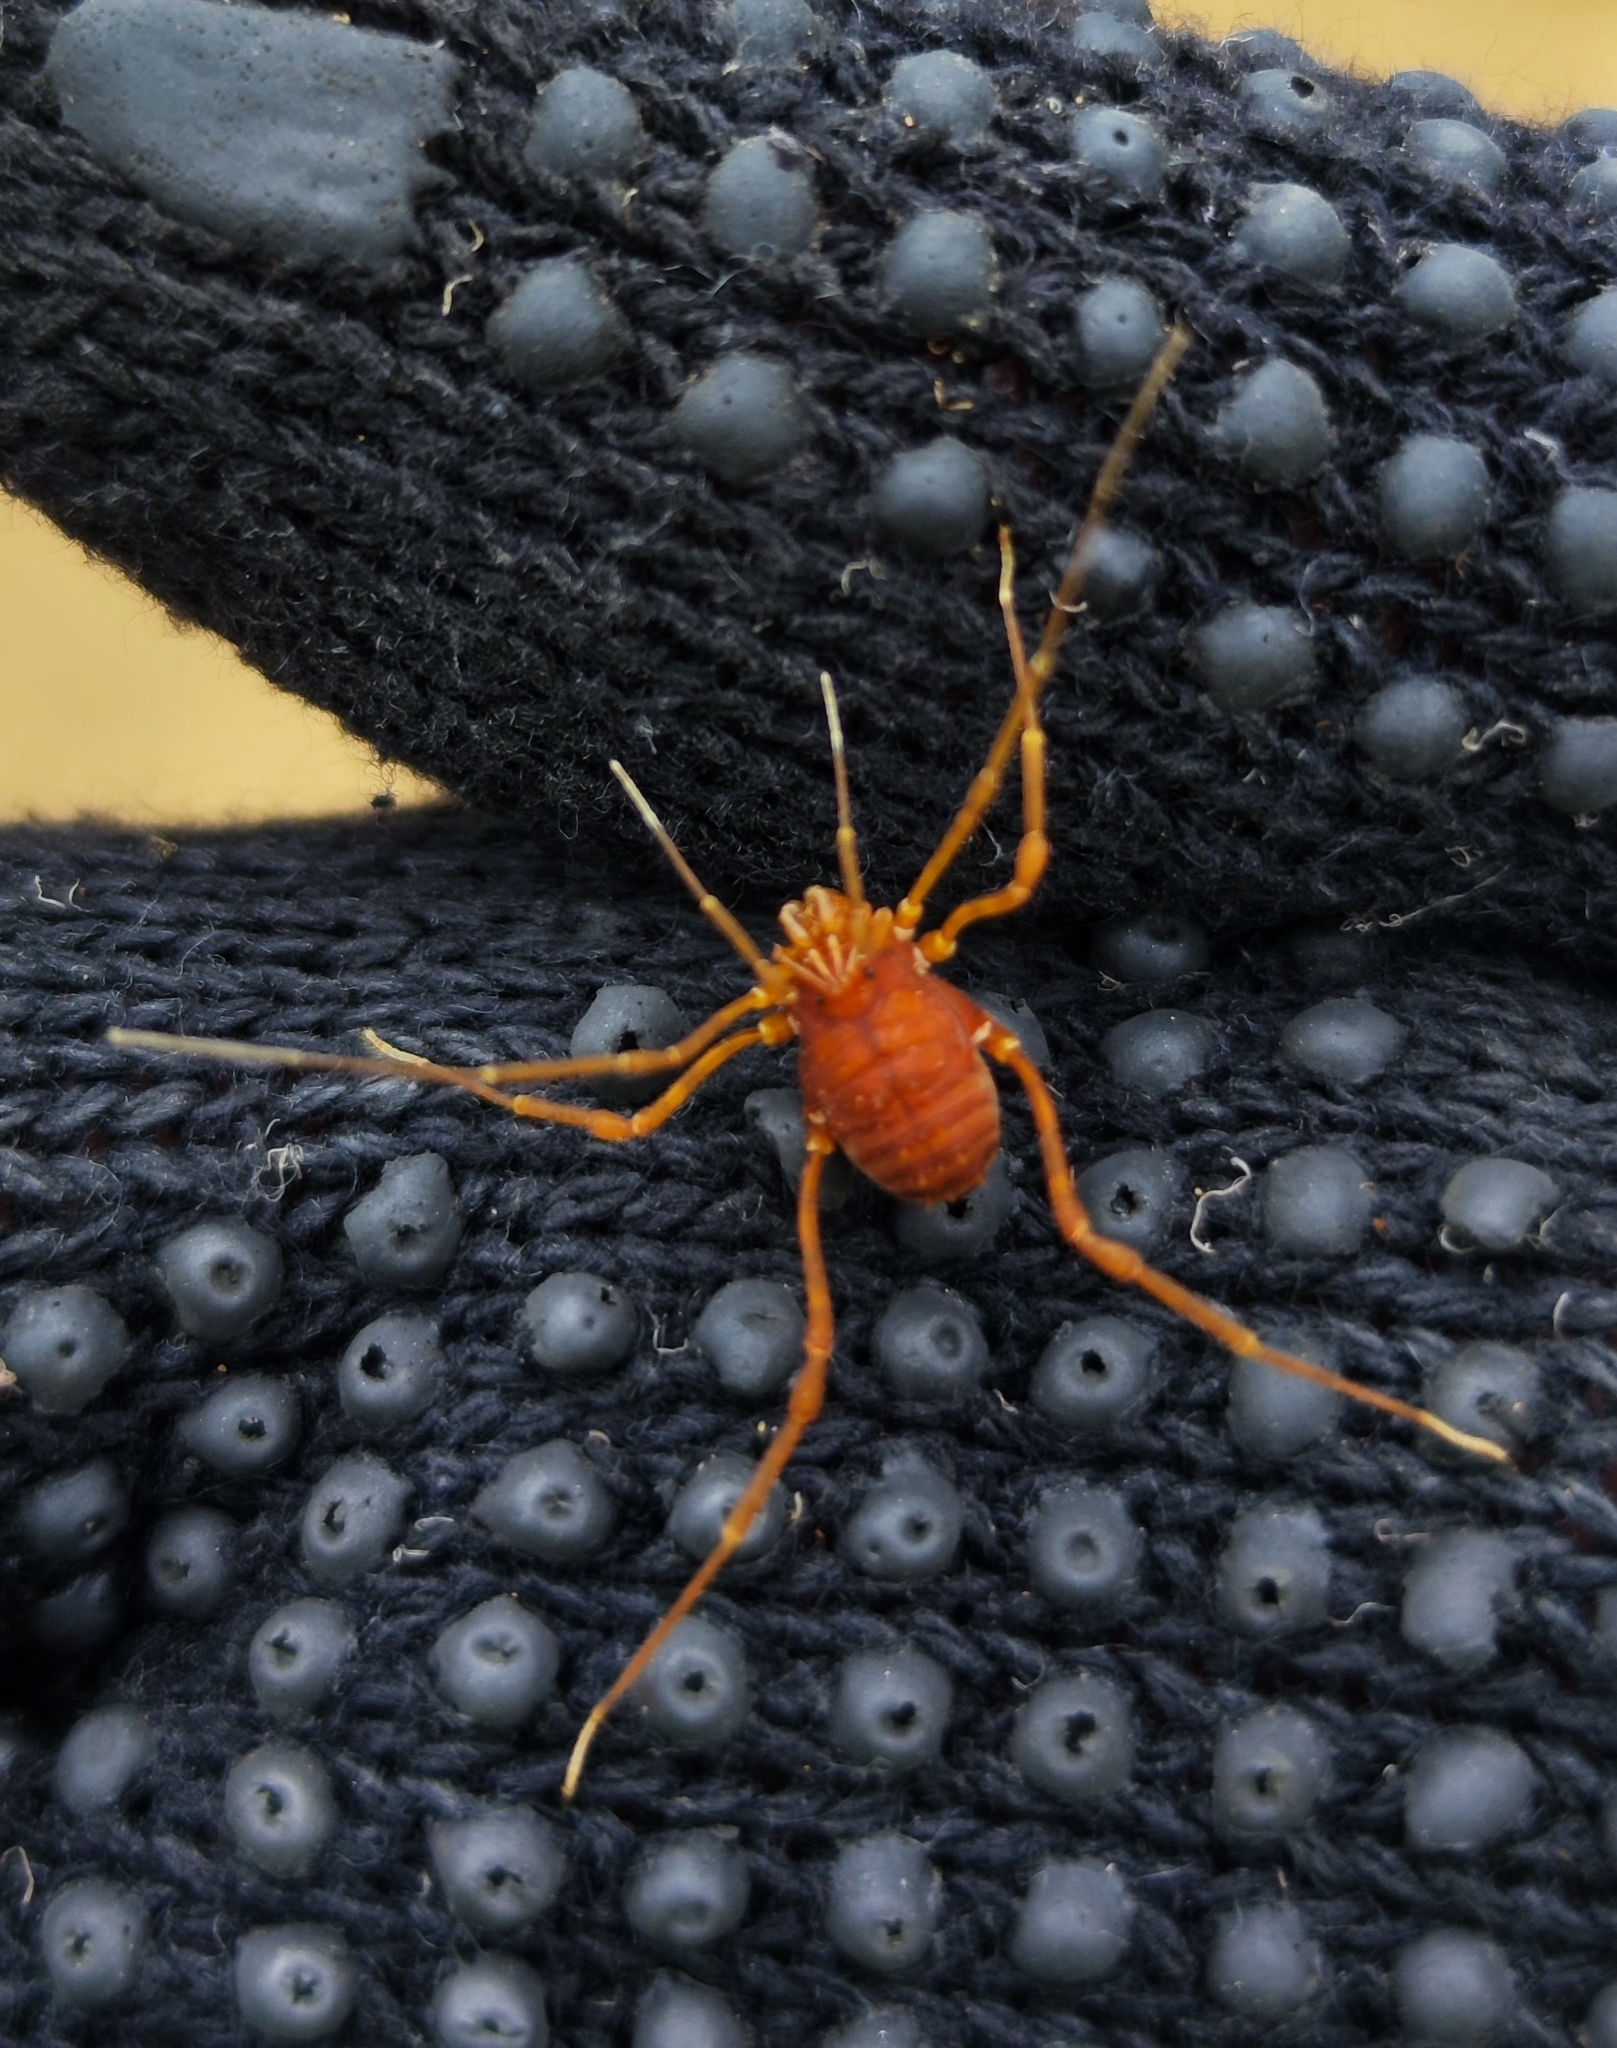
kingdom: Animalia
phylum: Arthropoda
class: Arachnida
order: Opiliones
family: Stygnidae
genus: Stygnus
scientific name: Stygnus polyacanthus
